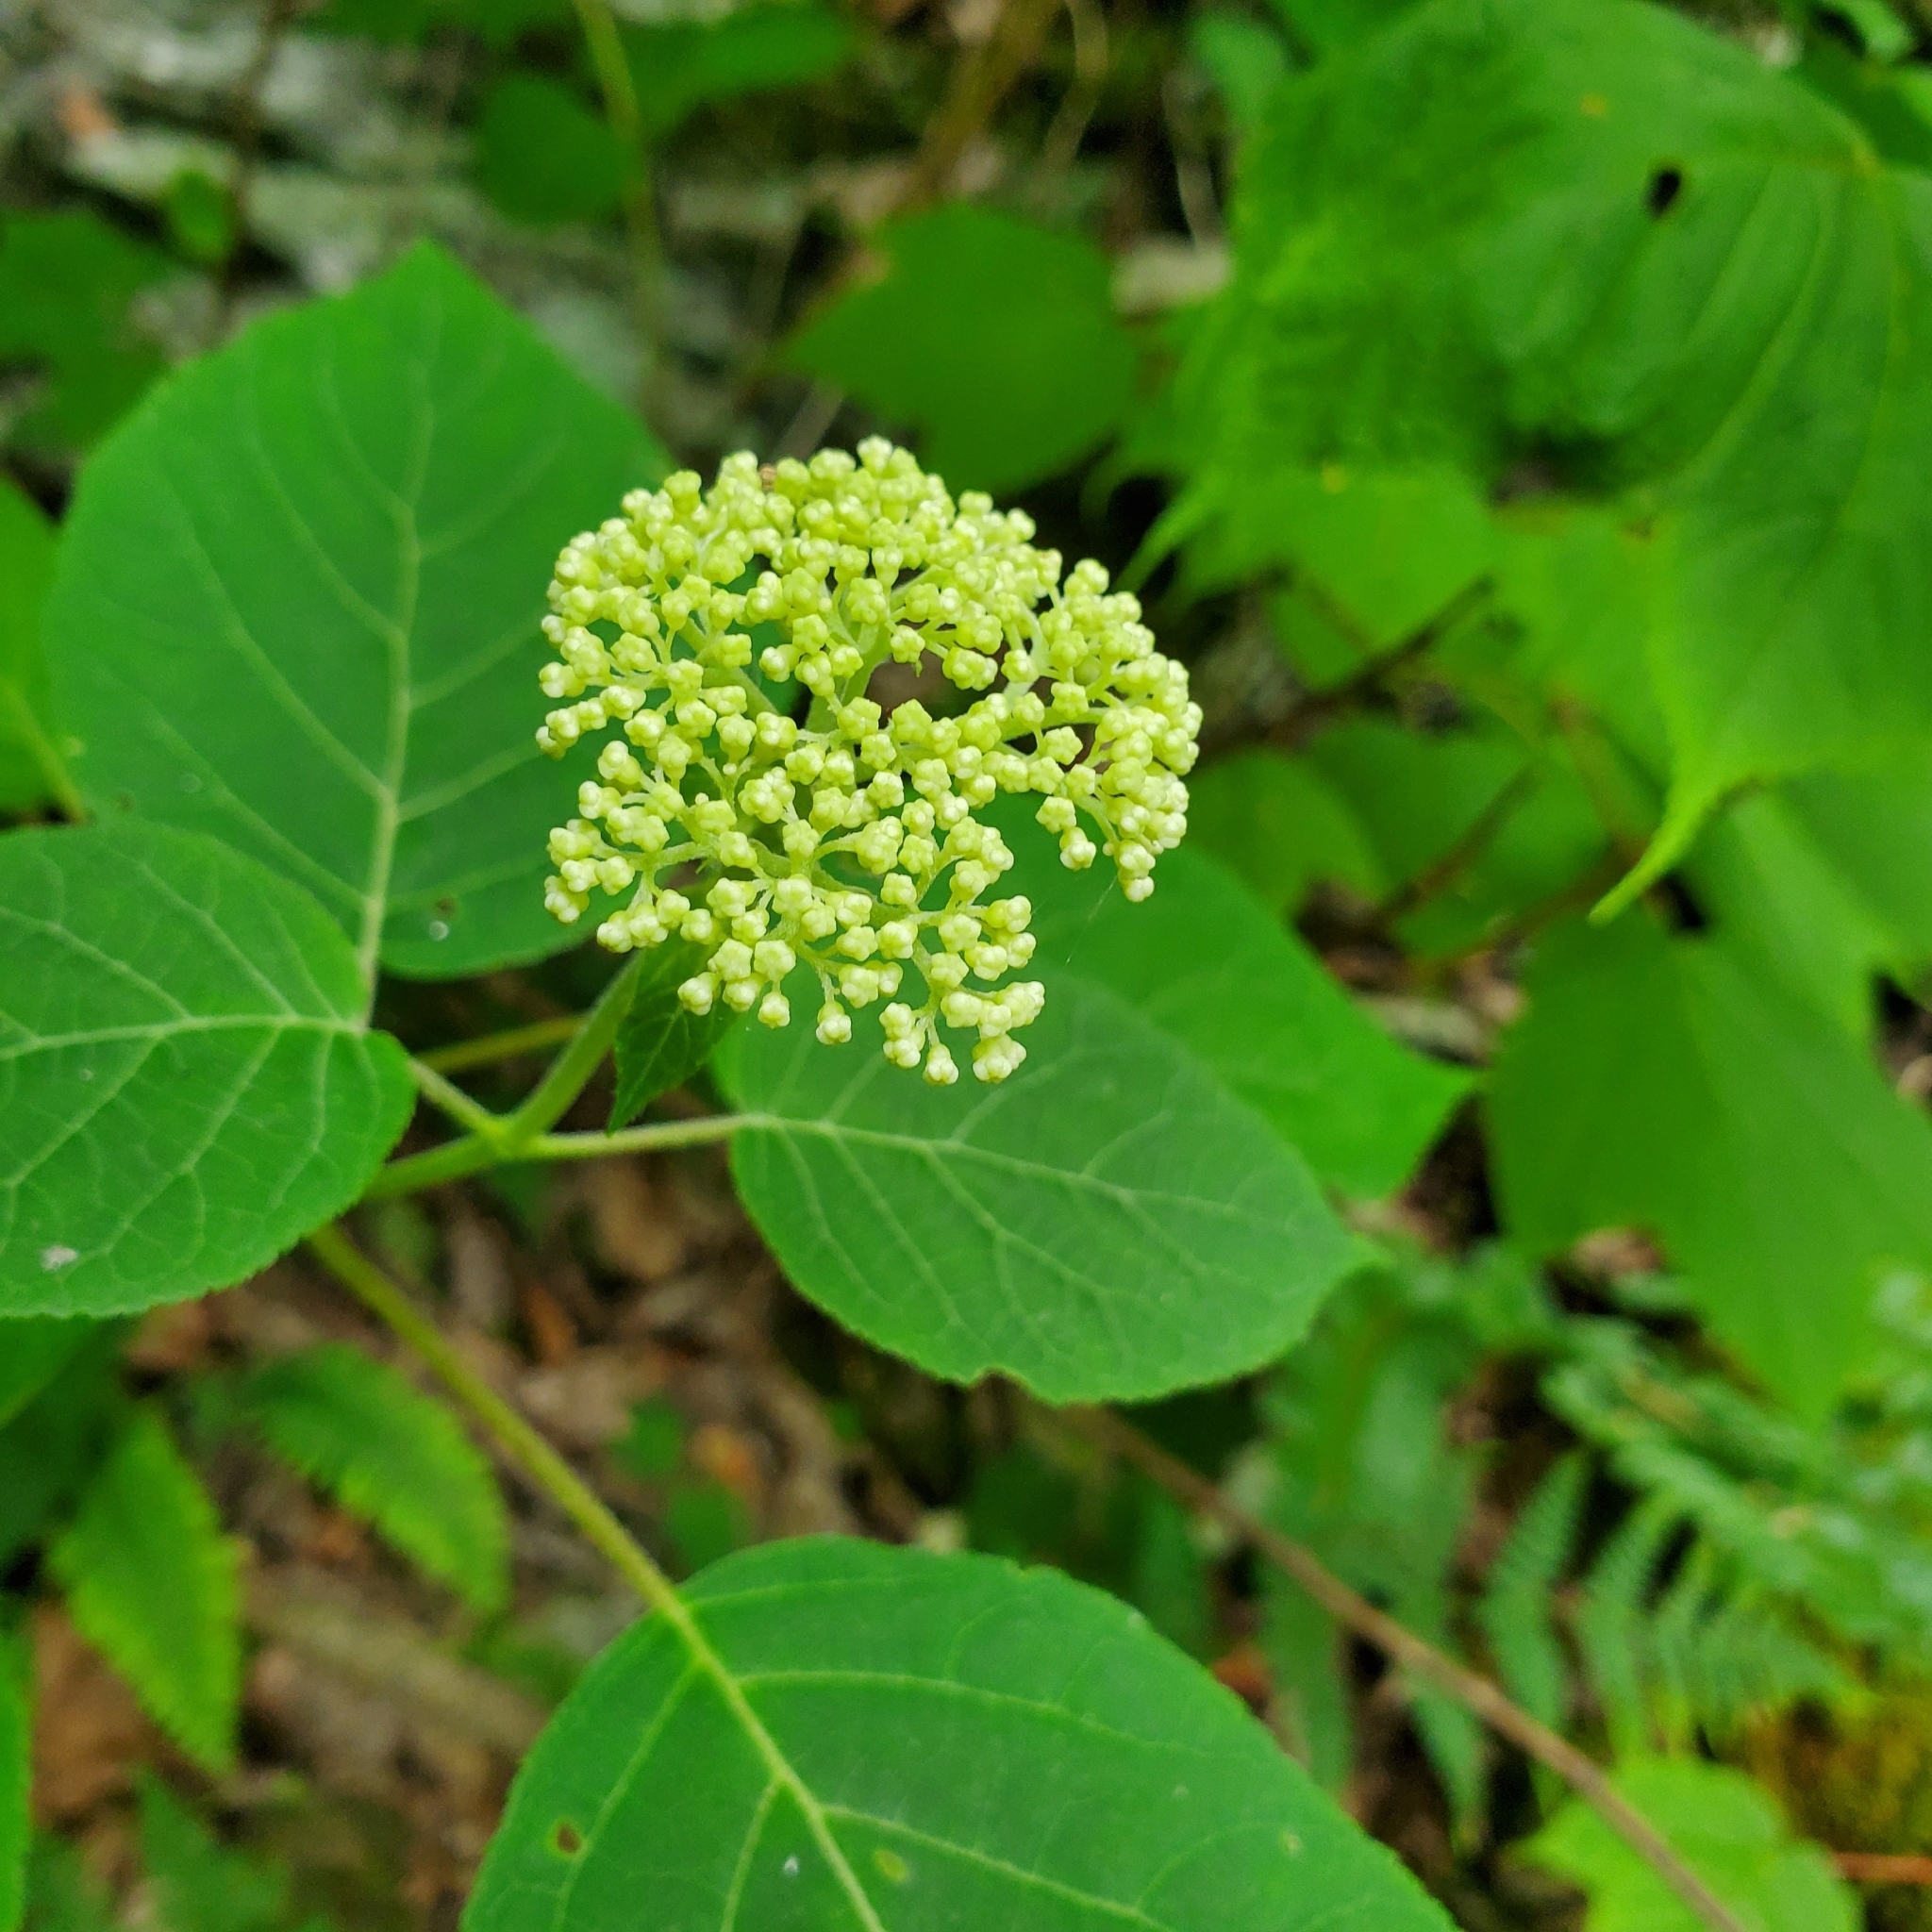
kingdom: Plantae
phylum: Tracheophyta
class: Magnoliopsida
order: Cornales
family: Hydrangeaceae
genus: Hydrangea
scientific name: Hydrangea arborescens
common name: Sevenbark
